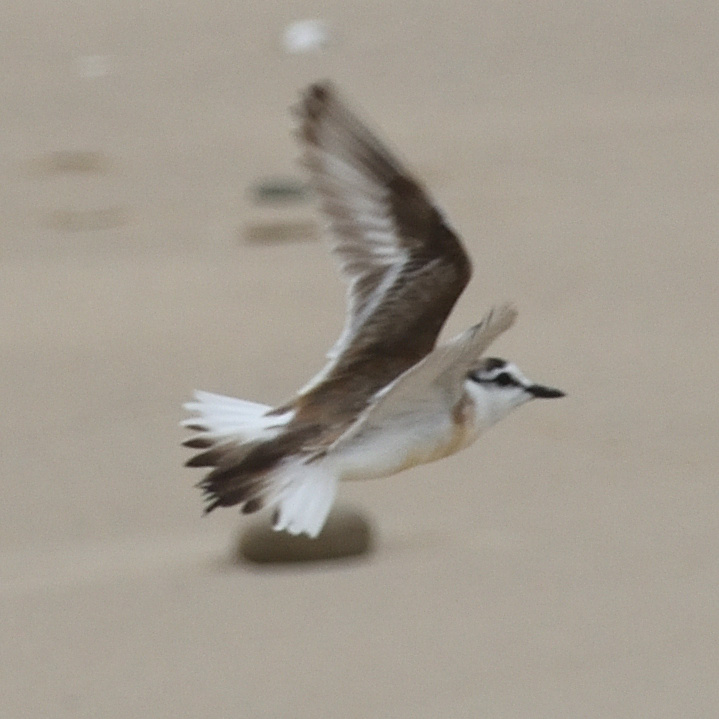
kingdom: Animalia
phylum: Chordata
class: Aves
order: Charadriiformes
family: Charadriidae
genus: Anarhynchus
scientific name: Anarhynchus
